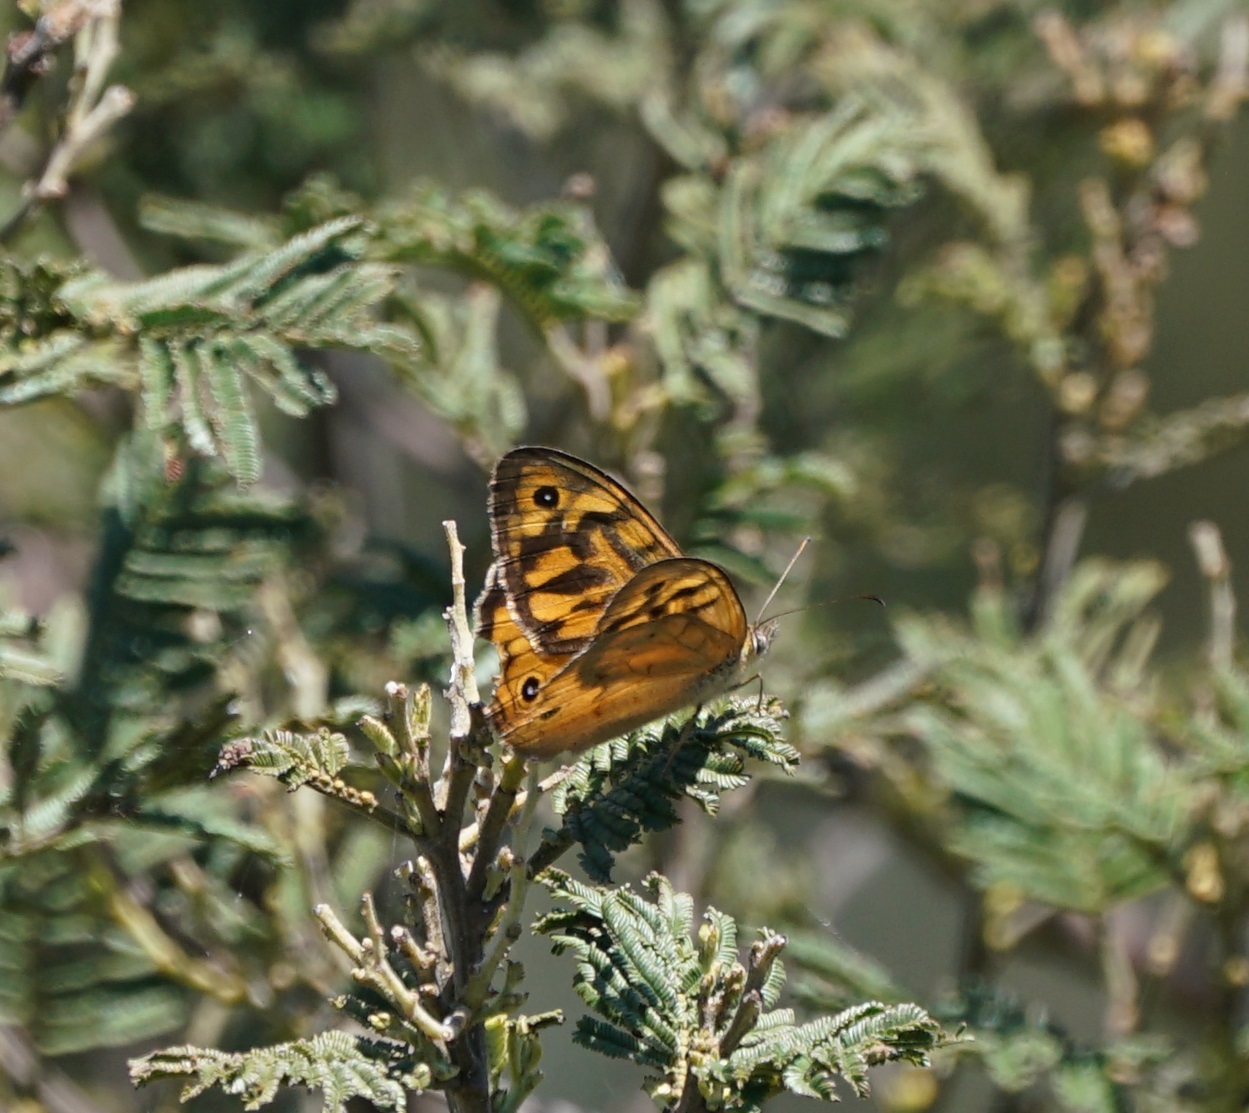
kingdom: Animalia
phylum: Arthropoda
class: Insecta
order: Lepidoptera
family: Nymphalidae
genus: Heteronympha
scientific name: Heteronympha merope
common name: Common brown
